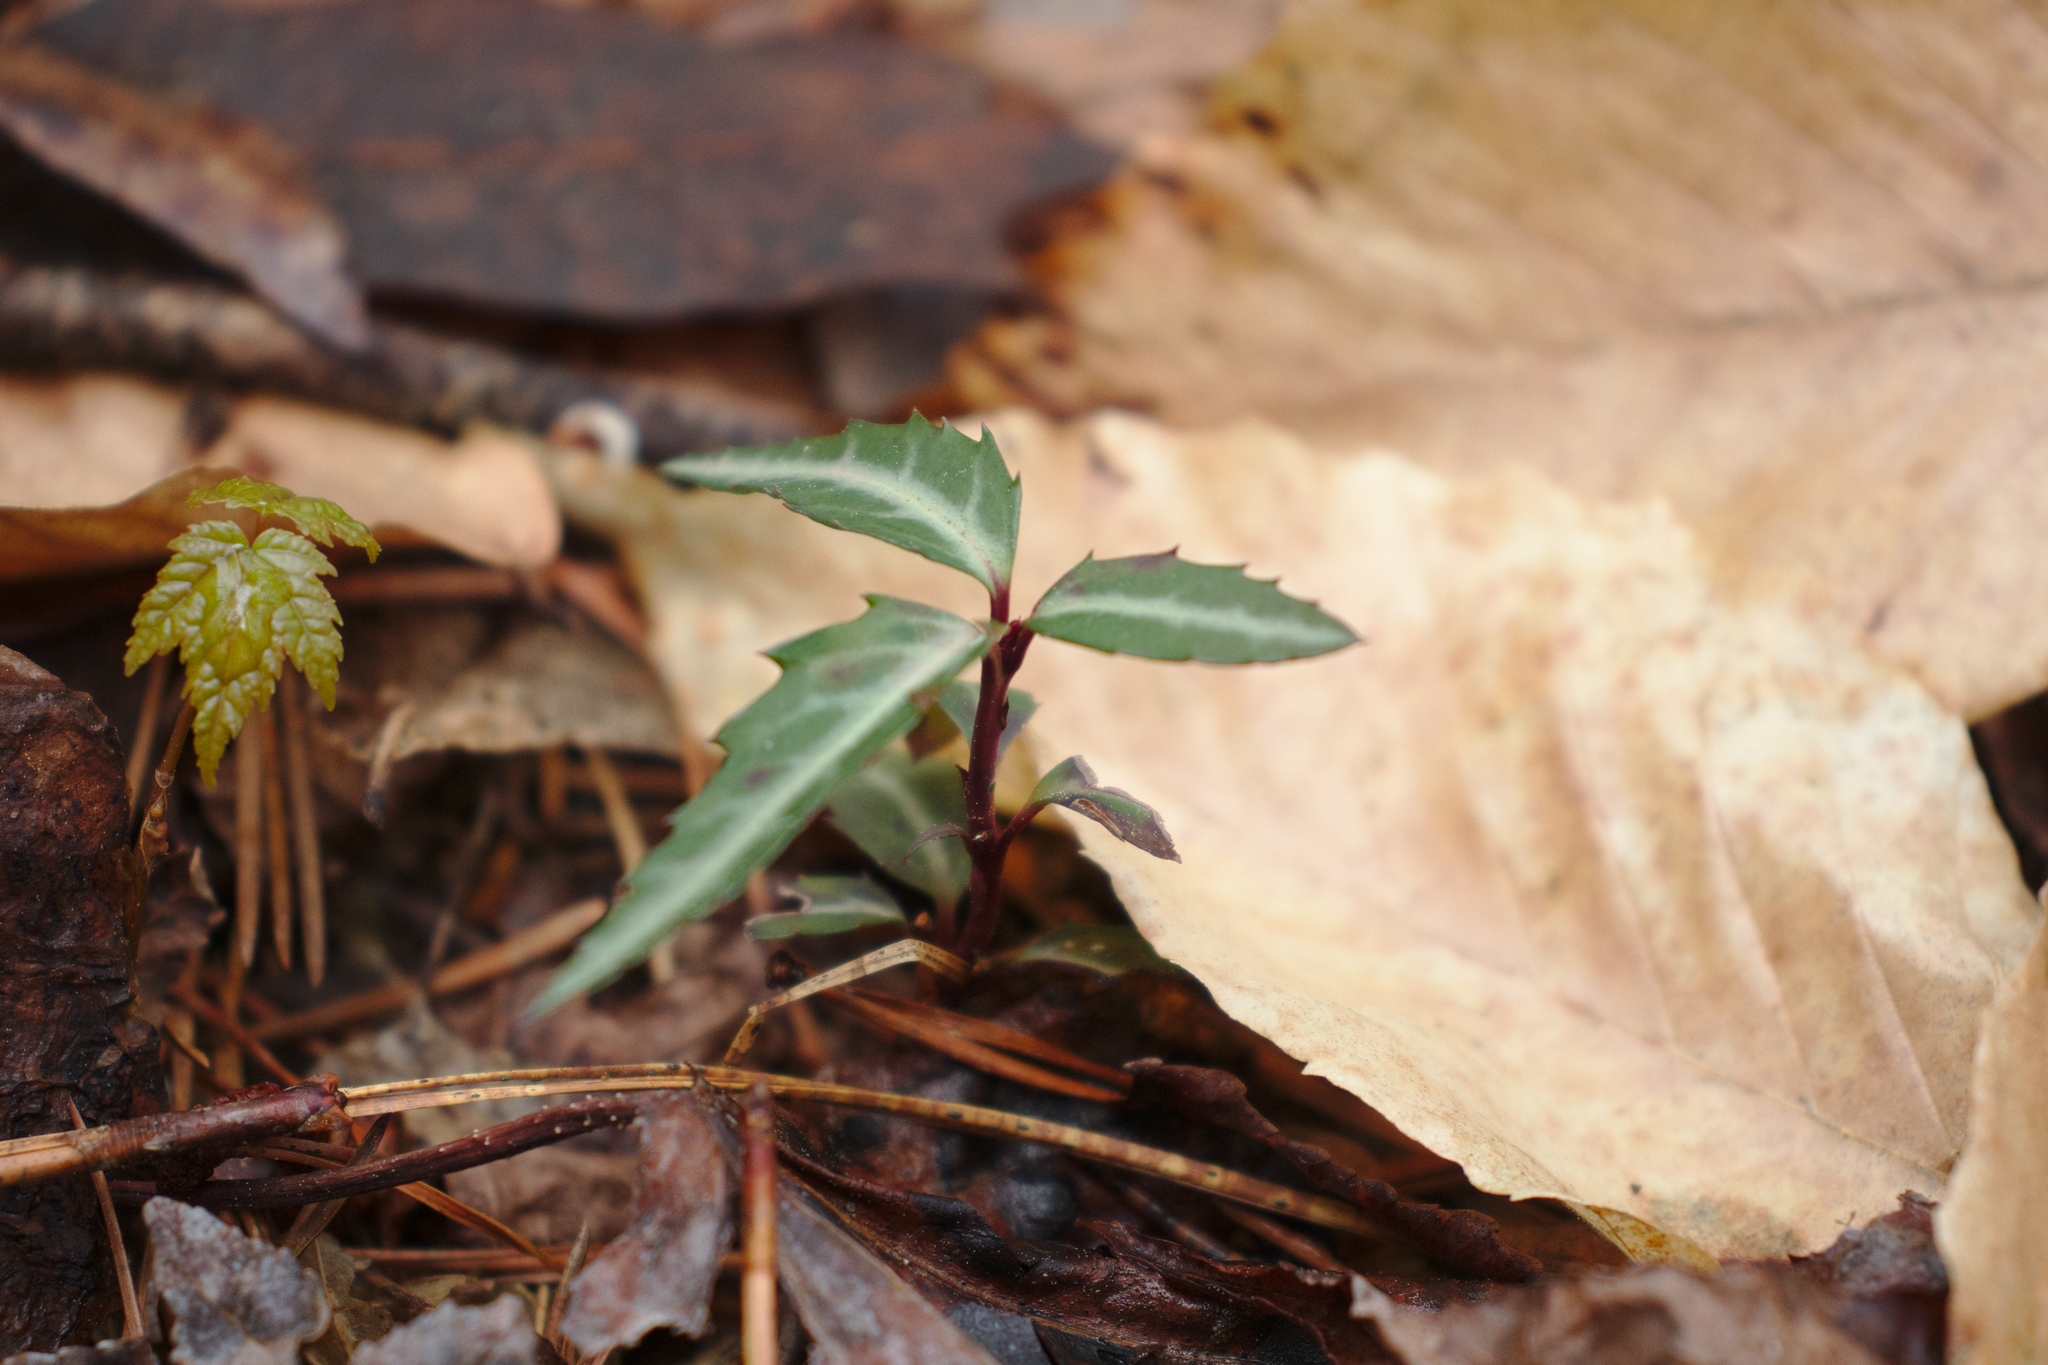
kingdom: Plantae
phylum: Tracheophyta
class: Magnoliopsida
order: Ericales
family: Ericaceae
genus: Chimaphila
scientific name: Chimaphila maculata
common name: Spotted pipsissewa
